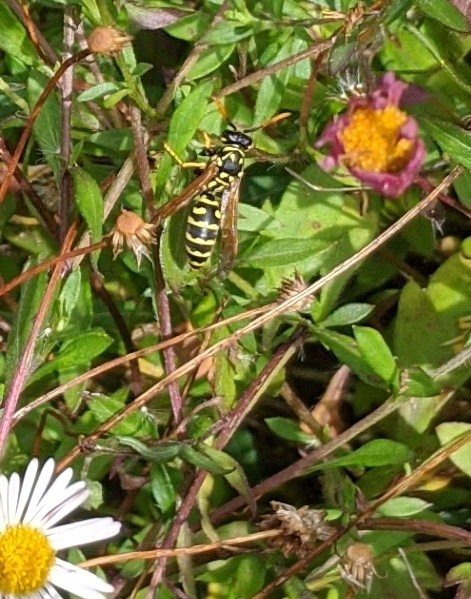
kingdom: Animalia
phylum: Arthropoda
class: Insecta
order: Hymenoptera
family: Eumenidae
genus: Polistes
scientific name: Polistes dominula
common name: Paper wasp
